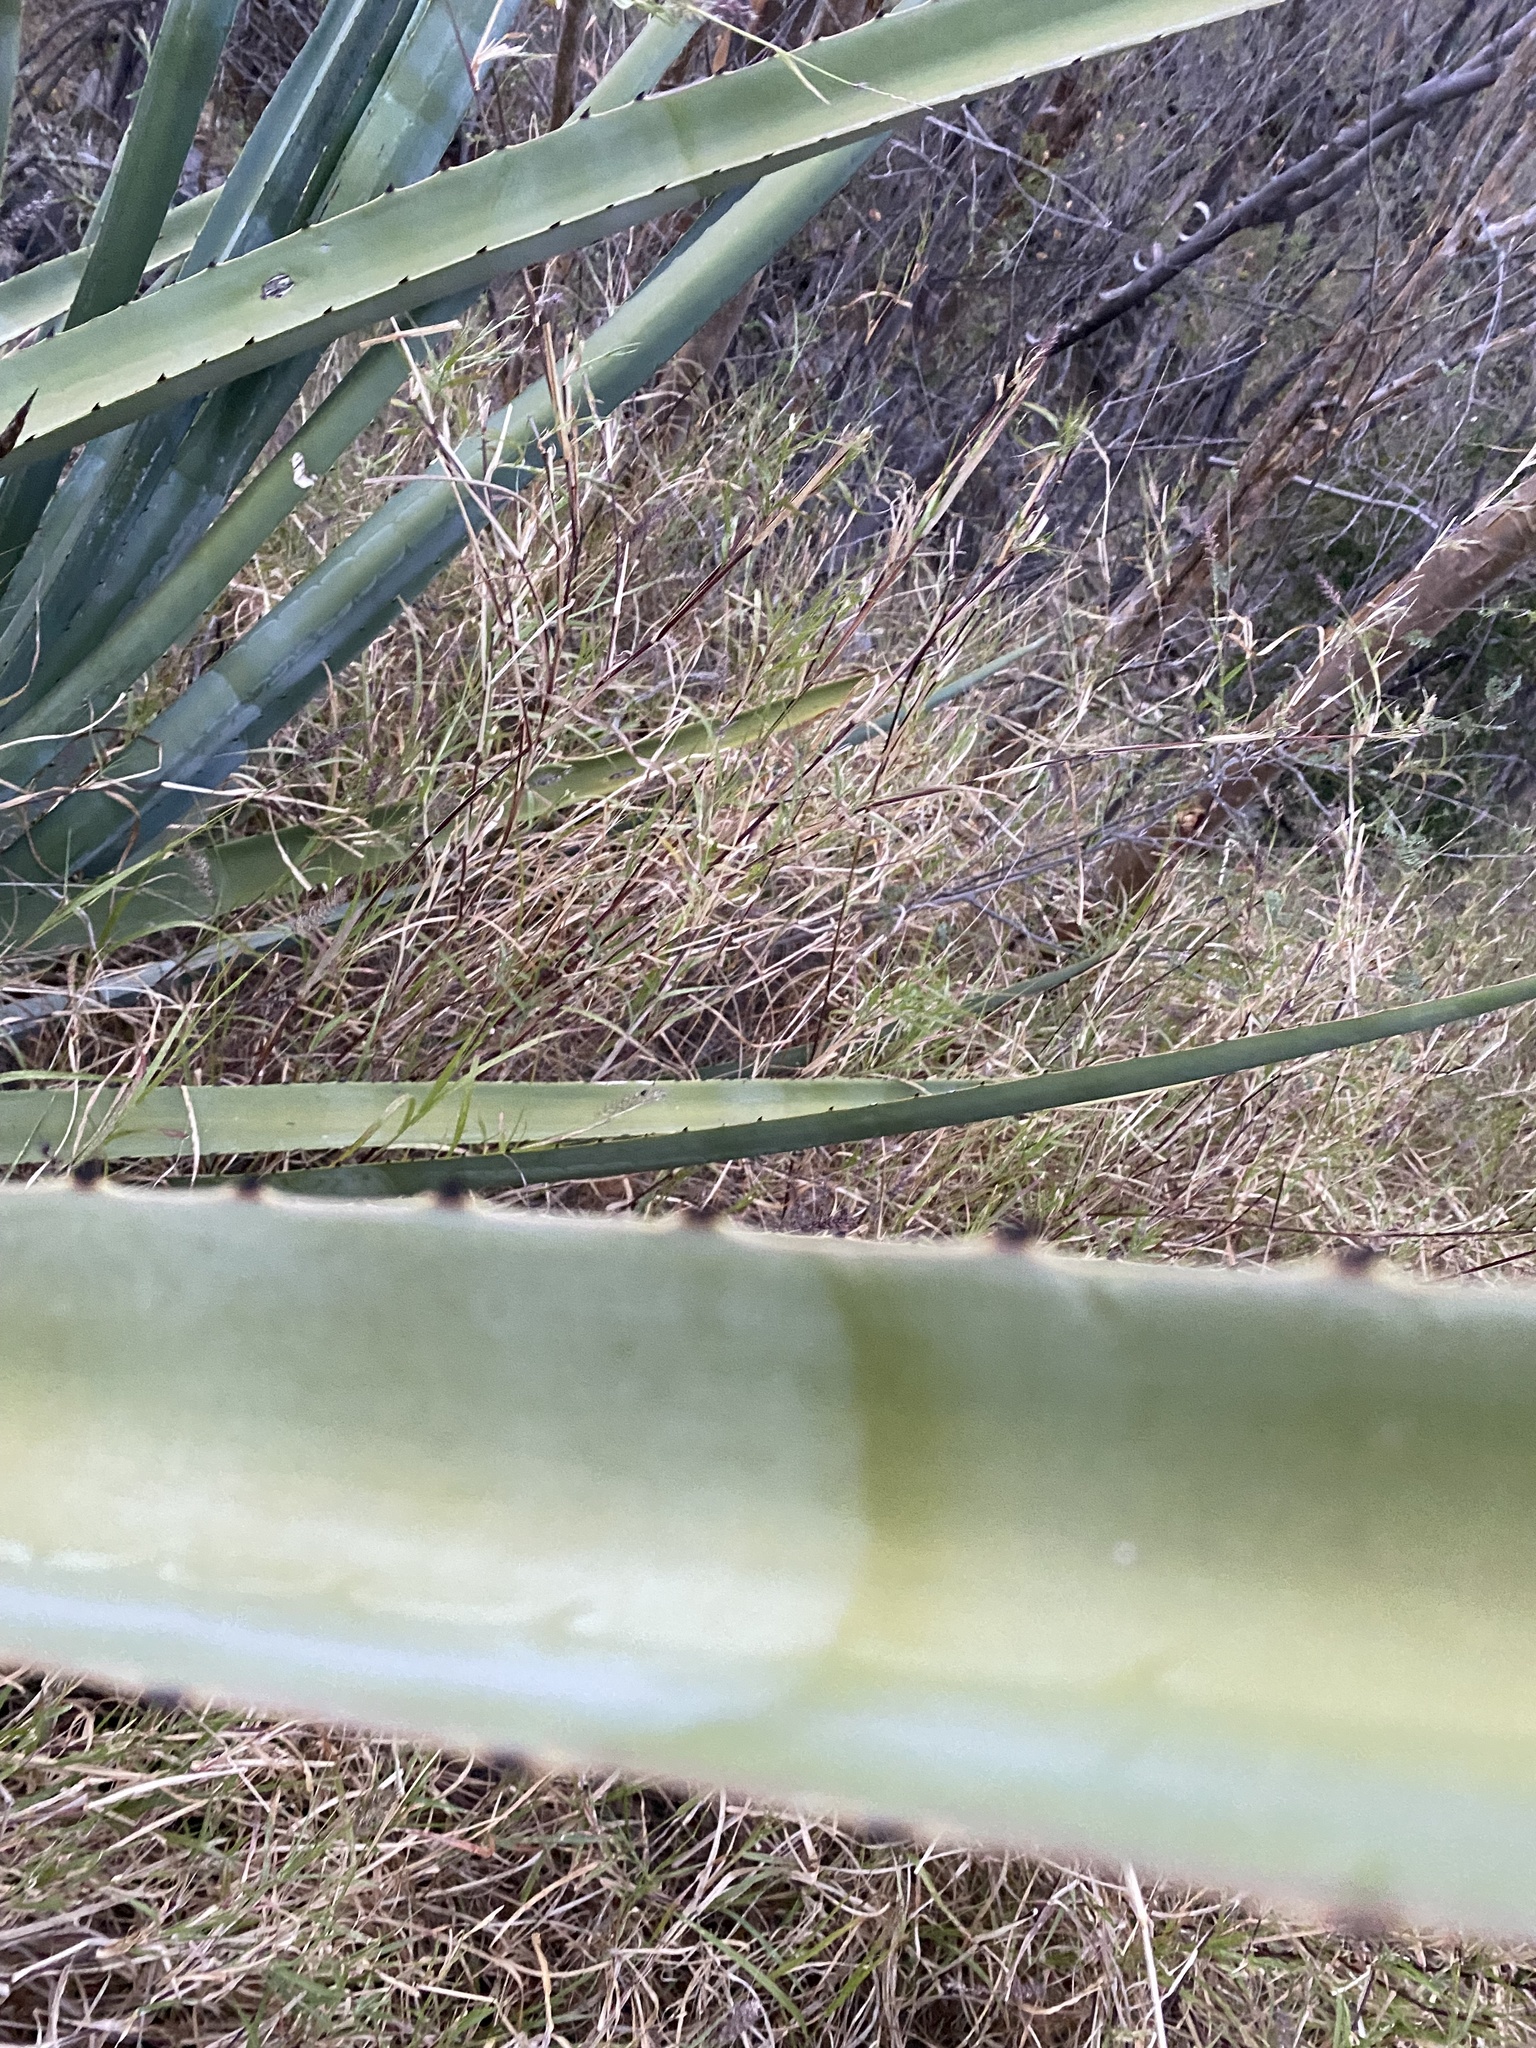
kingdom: Plantae
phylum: Tracheophyta
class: Liliopsida
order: Asparagales
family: Asparagaceae
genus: Agave
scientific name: Agave angustifolia
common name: Mescal agave
